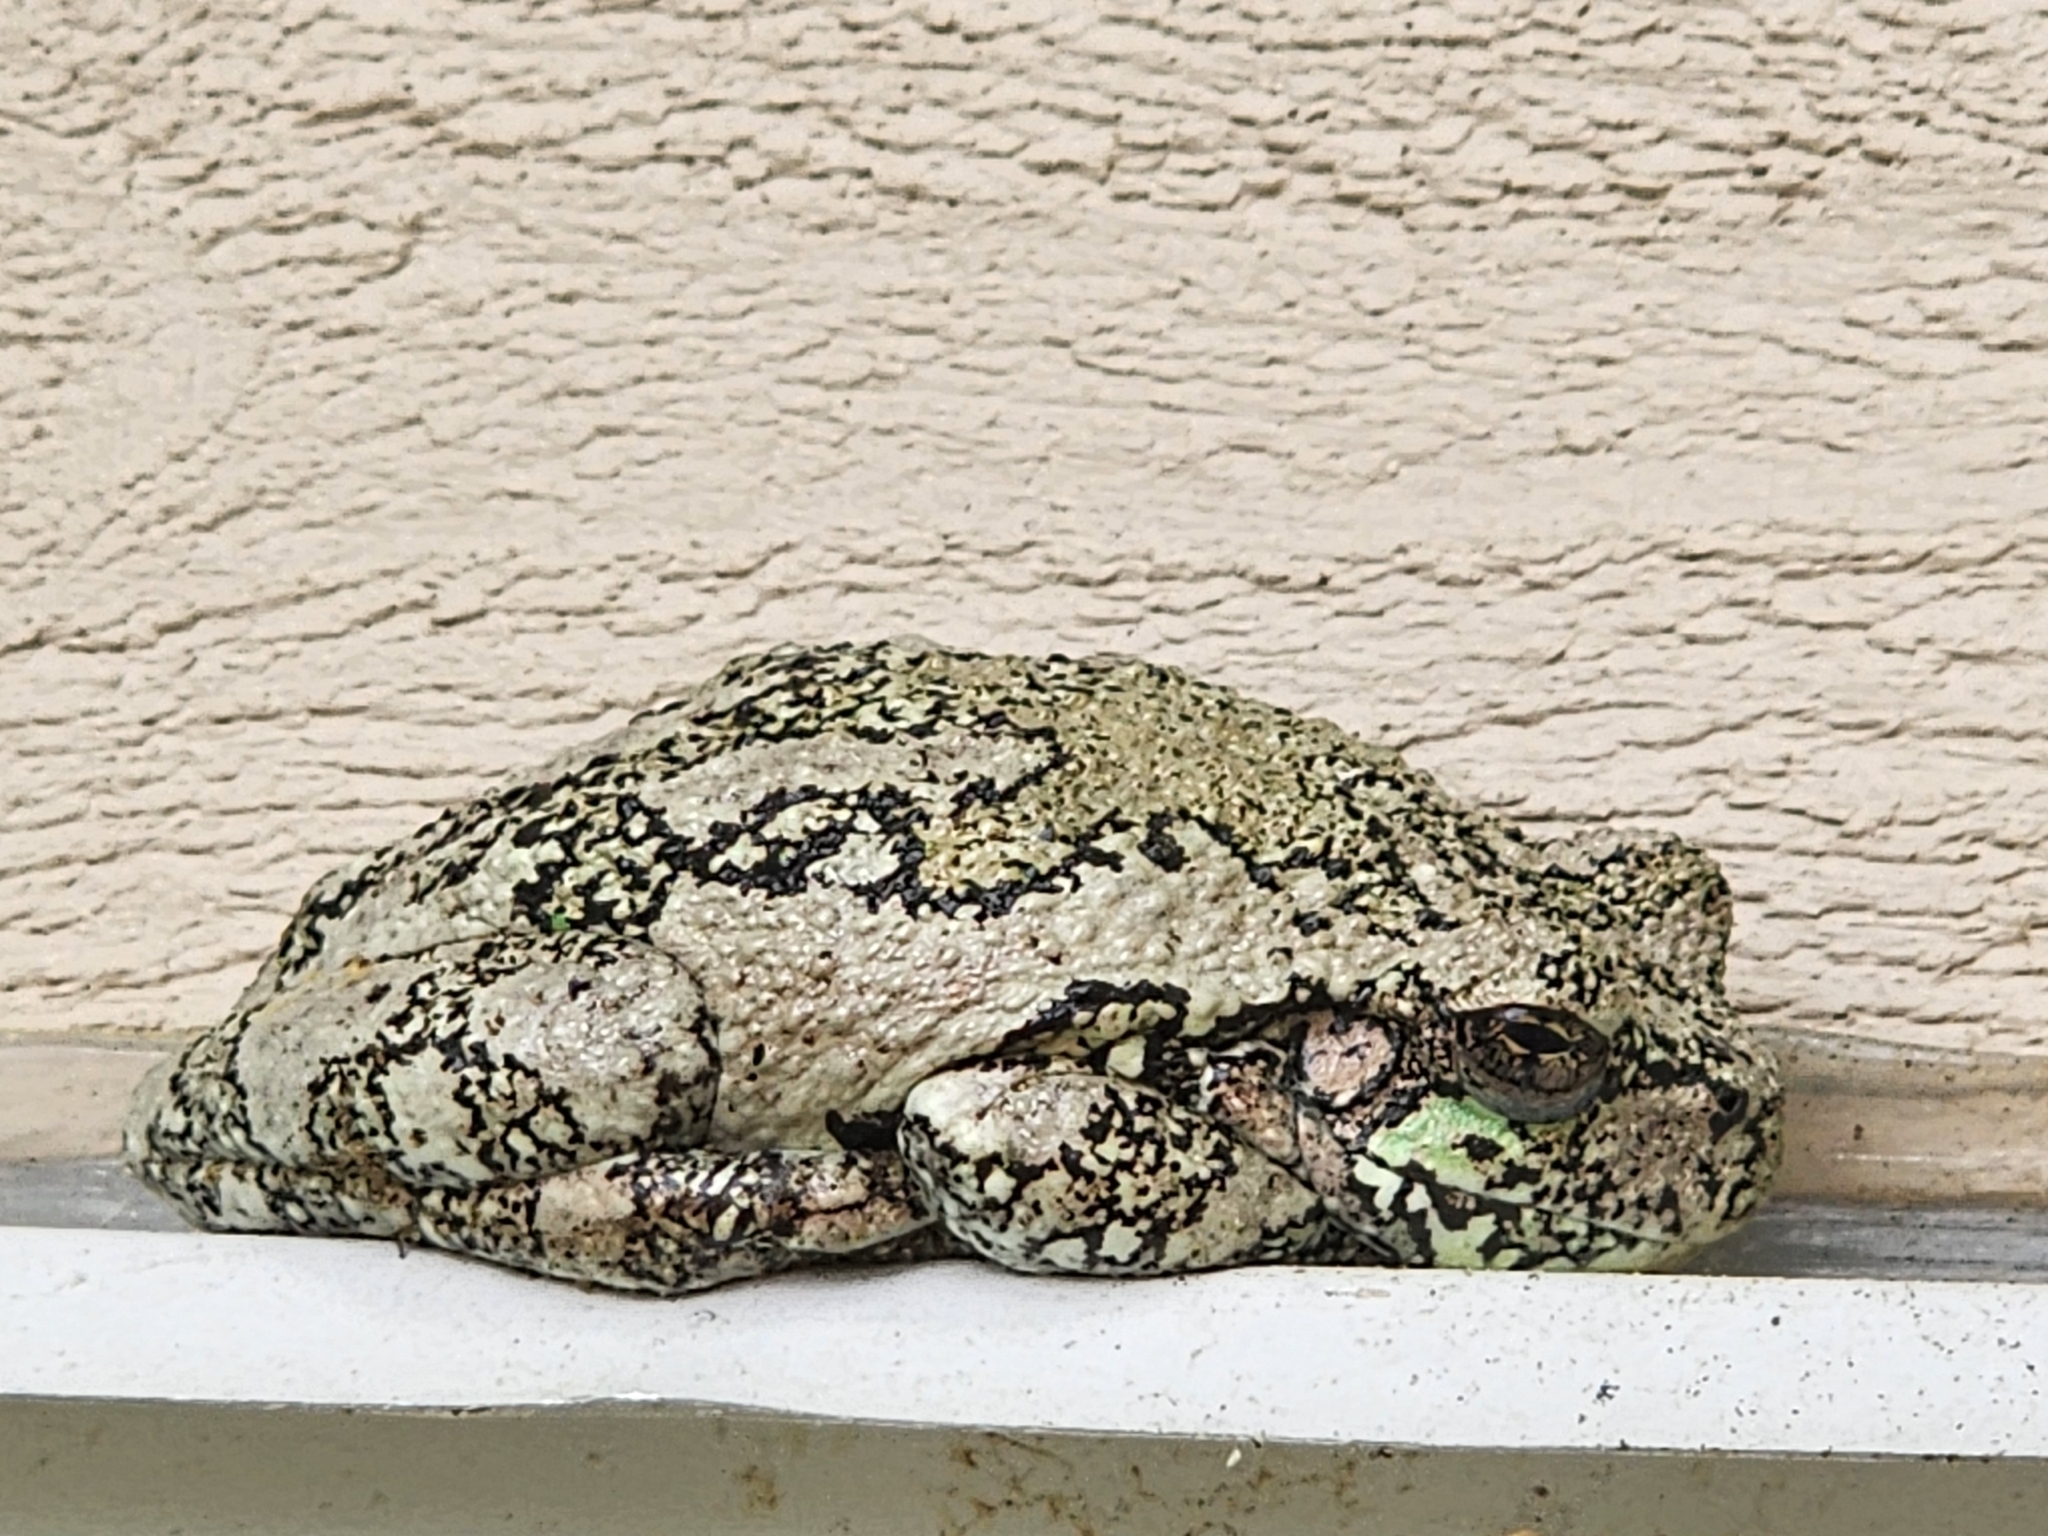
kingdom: Animalia
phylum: Chordata
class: Amphibia
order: Anura
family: Hylidae
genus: Dryophytes
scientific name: Dryophytes versicolor
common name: Gray treefrog
